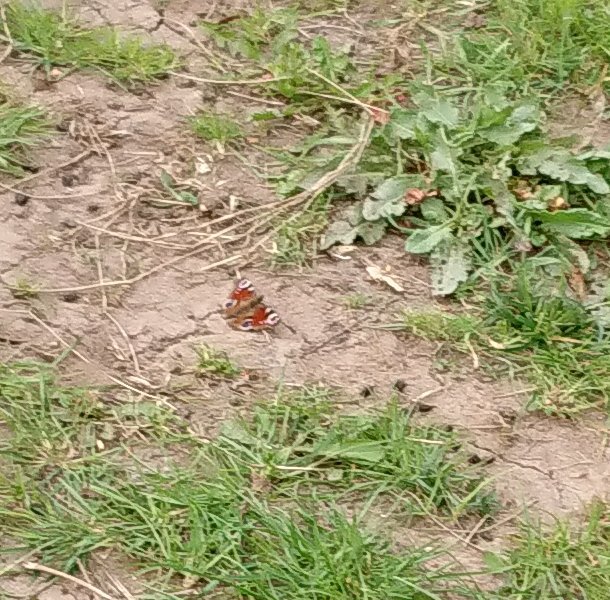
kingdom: Animalia
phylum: Arthropoda
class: Insecta
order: Lepidoptera
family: Nymphalidae
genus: Aglais
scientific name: Aglais io
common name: Peacock
